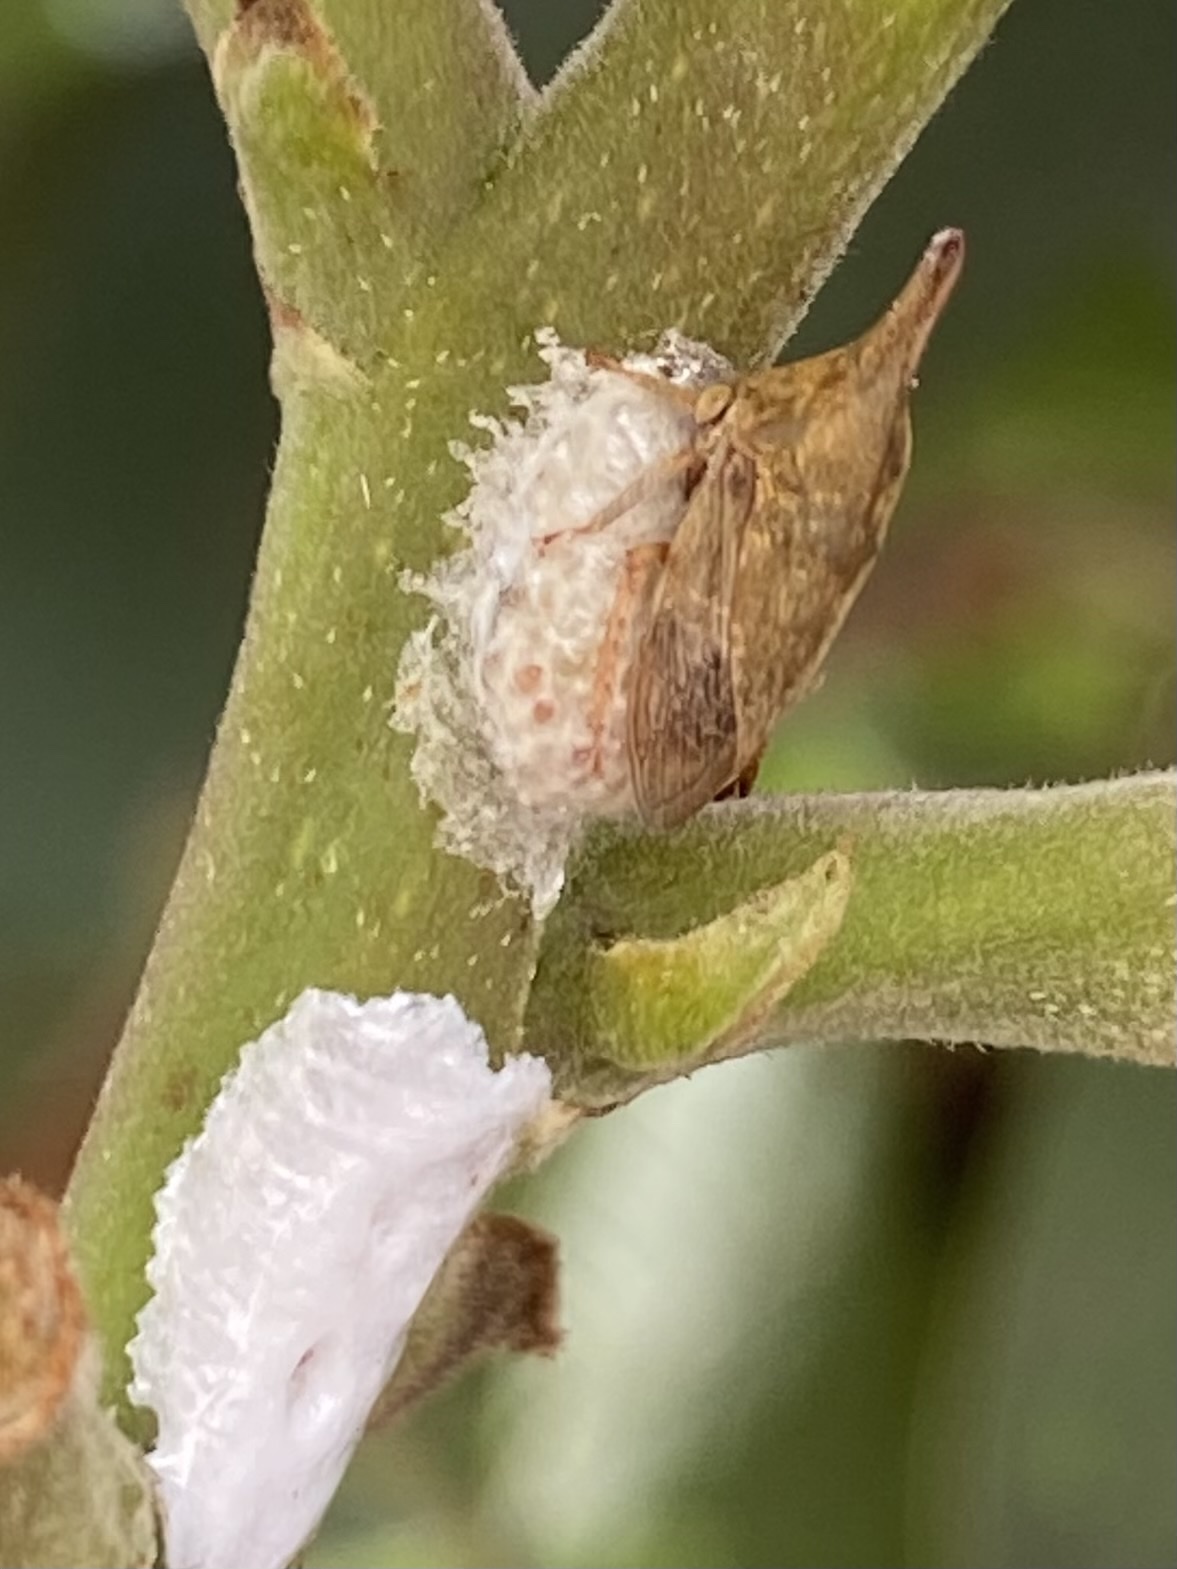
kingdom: Animalia
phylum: Arthropoda
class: Insecta
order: Hemiptera
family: Membracidae
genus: Guayaquila
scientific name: Guayaquila
